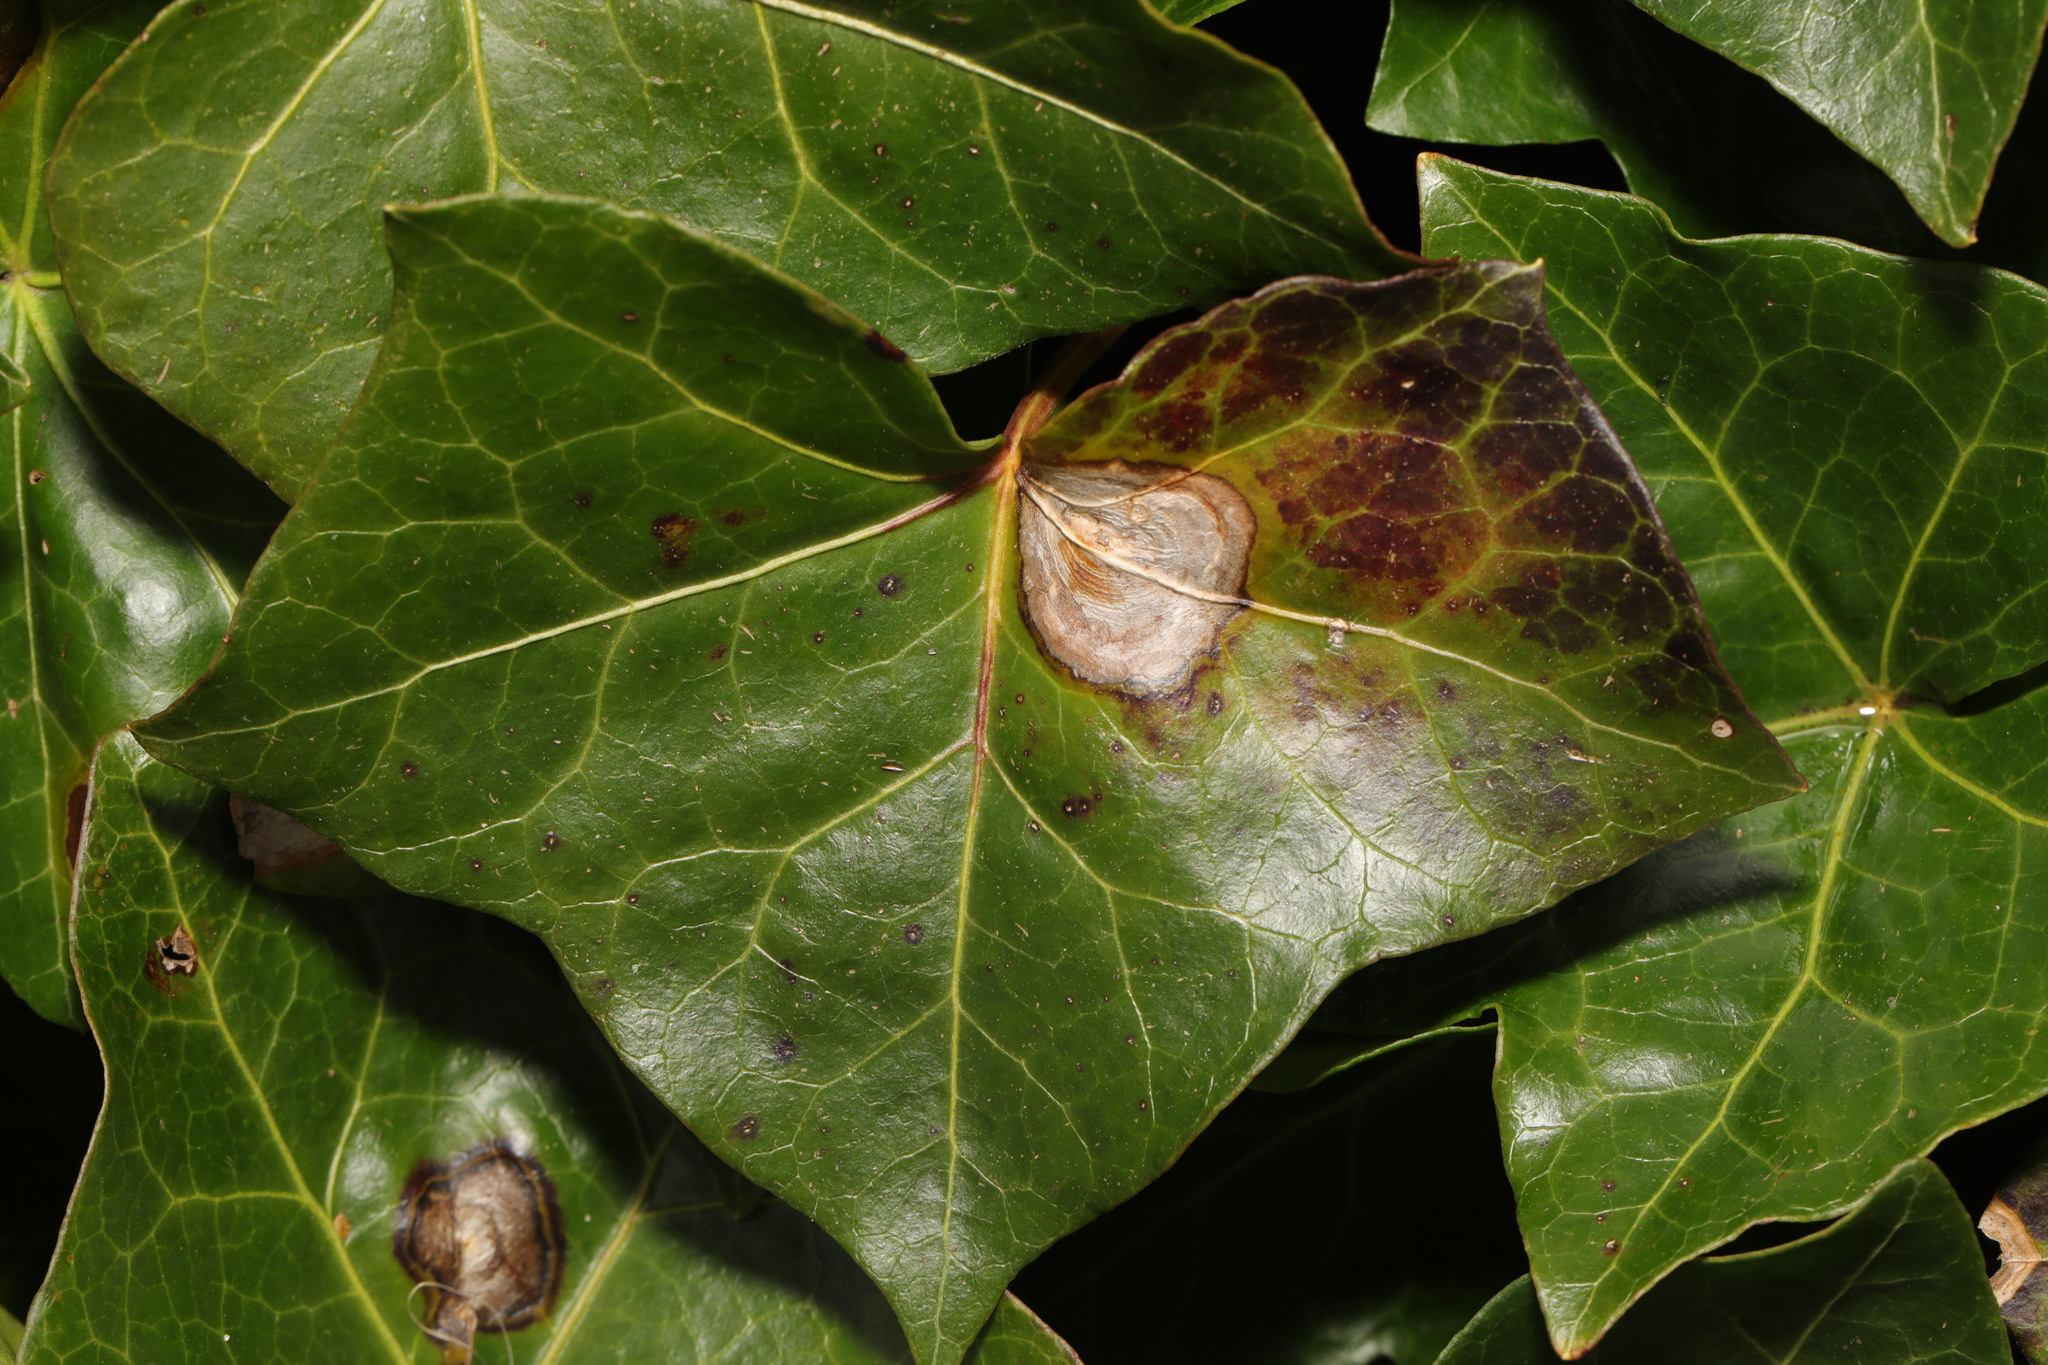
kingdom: Fungi
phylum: Ascomycota
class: Dothideomycetes
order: Pleosporales
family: Didymellaceae
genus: Boeremia
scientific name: Boeremia hedericola
